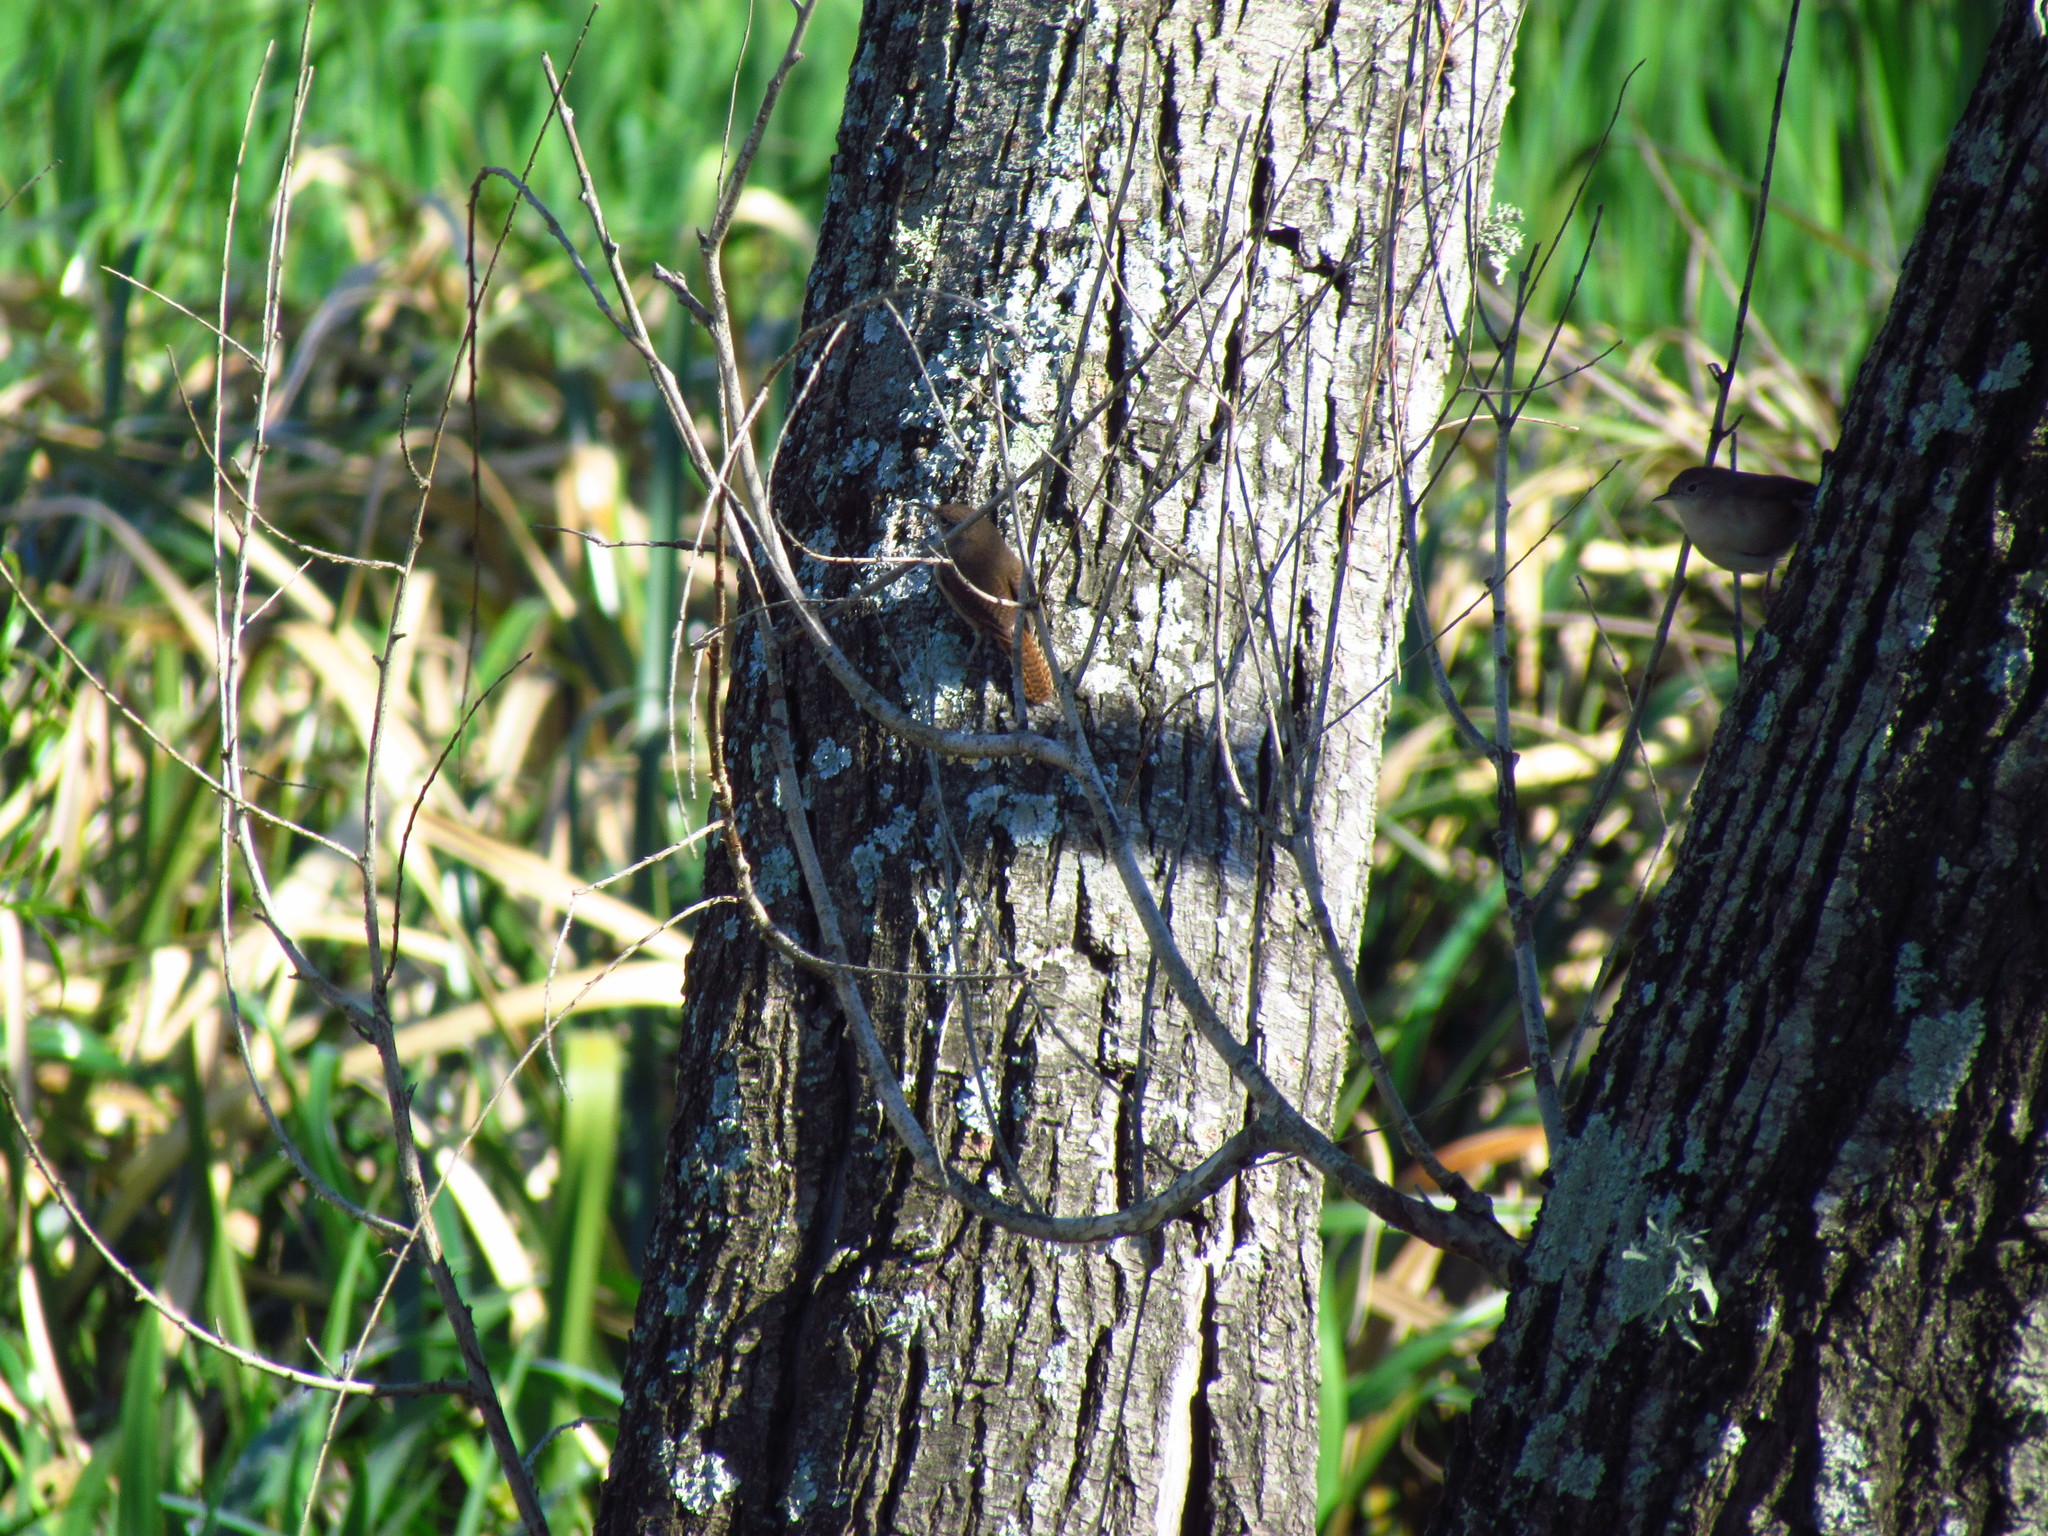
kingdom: Animalia
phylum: Chordata
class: Aves
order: Passeriformes
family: Troglodytidae
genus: Troglodytes
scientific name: Troglodytes aedon
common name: House wren
